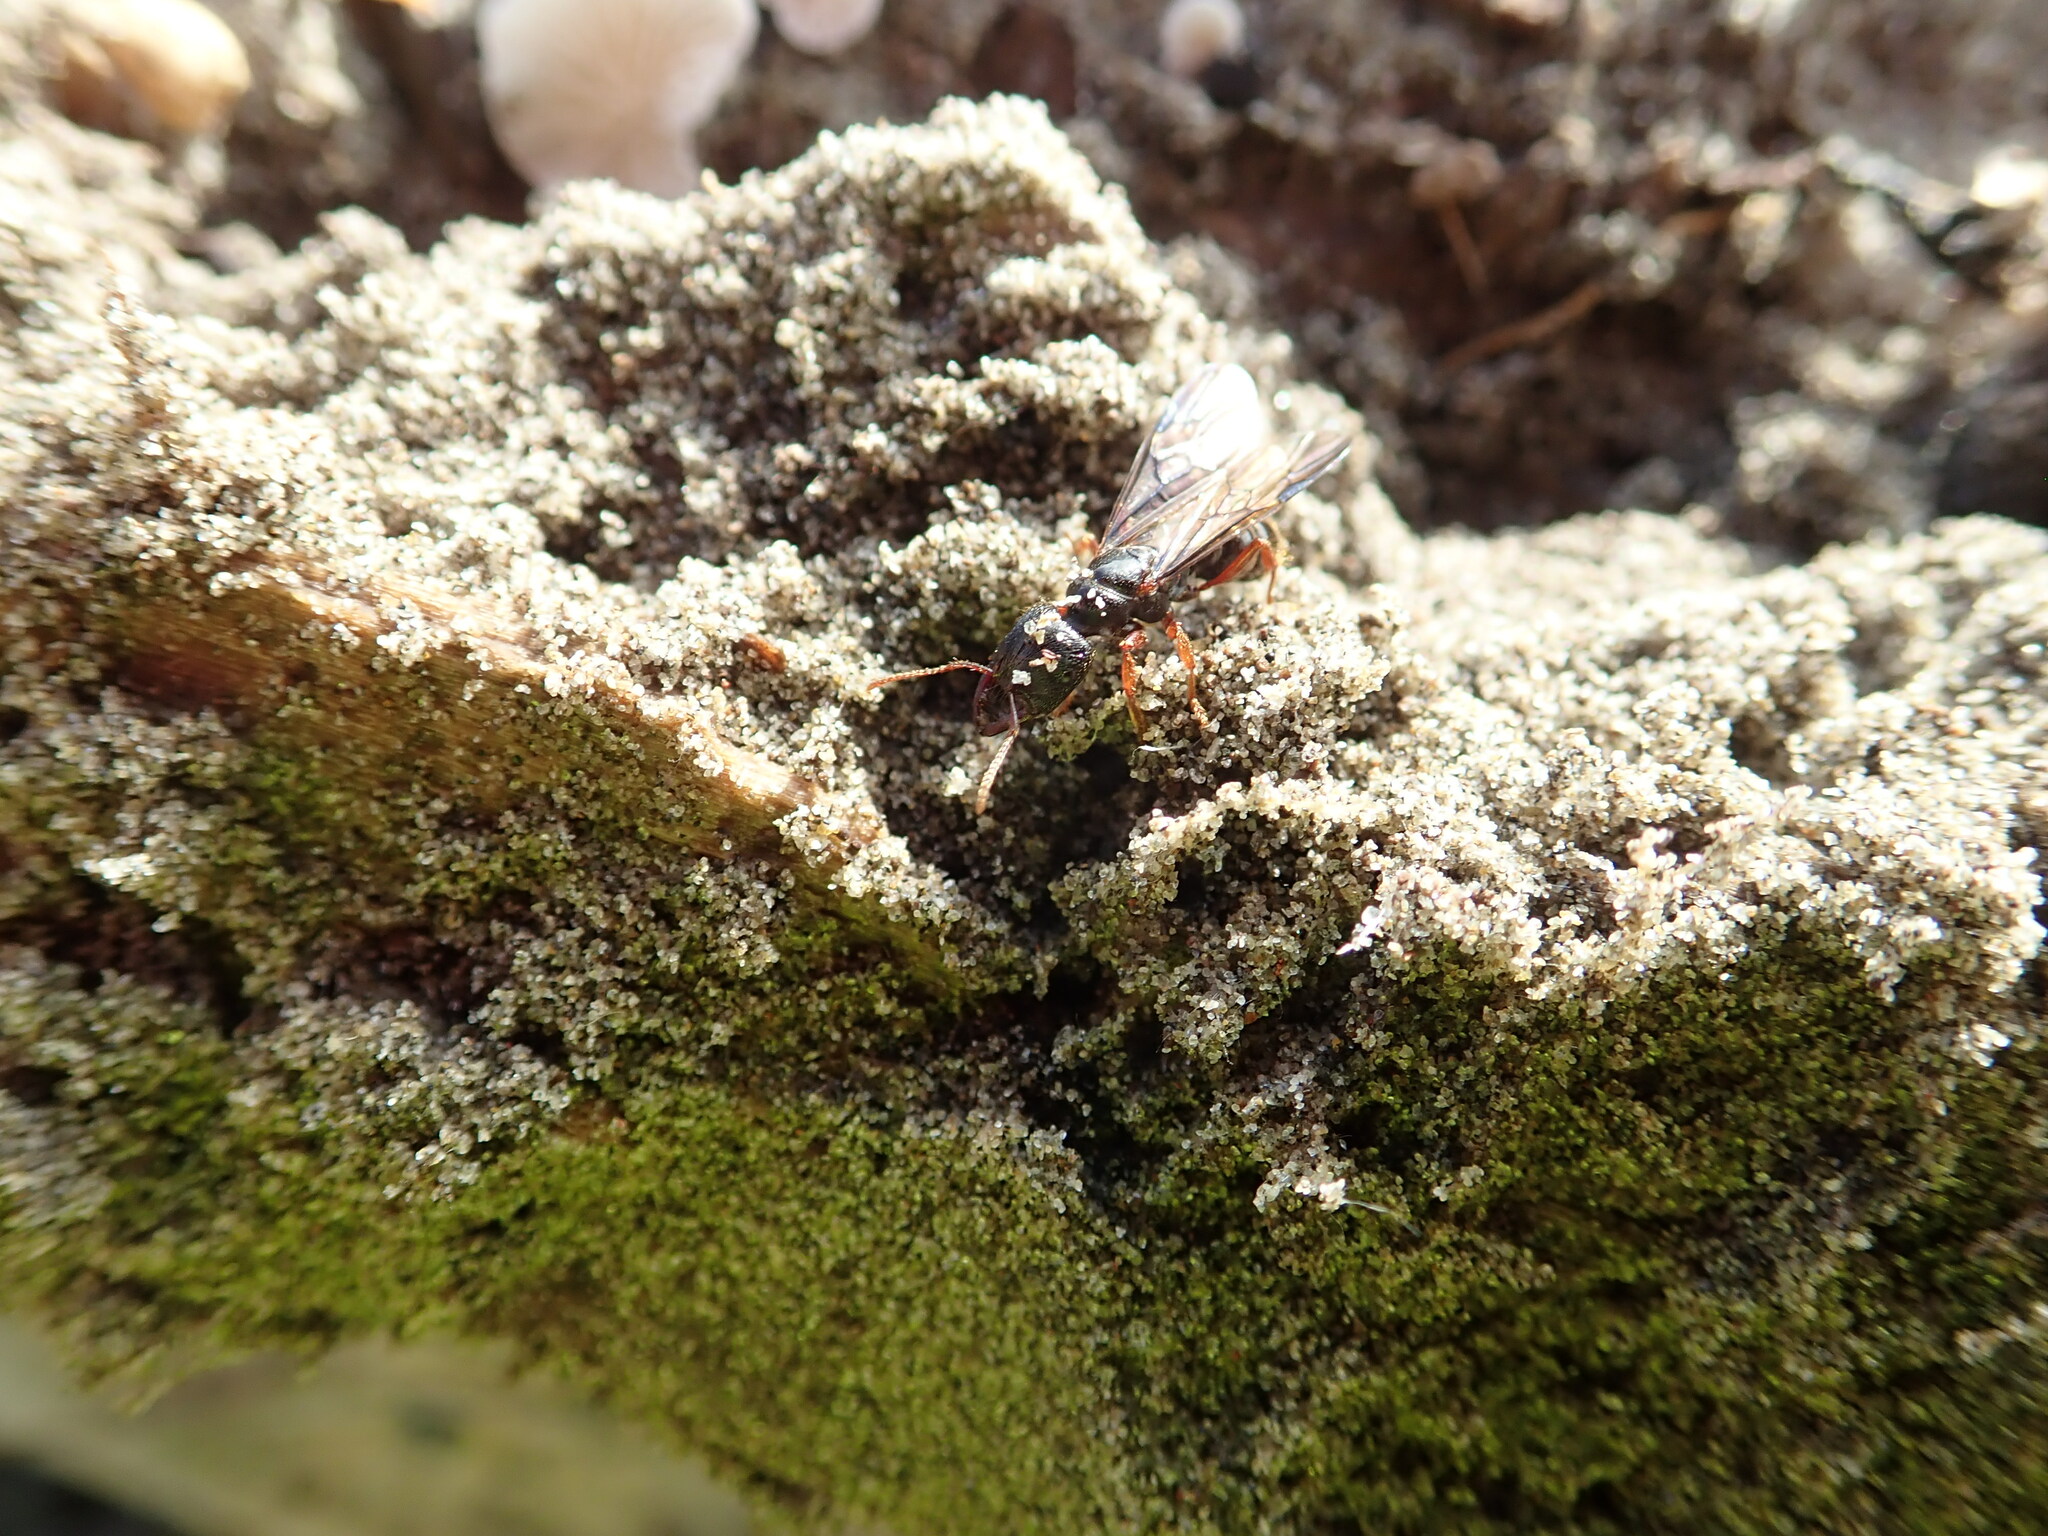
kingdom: Animalia
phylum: Arthropoda
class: Insecta
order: Hymenoptera
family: Formicidae
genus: Amblyopone
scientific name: Amblyopone australis
